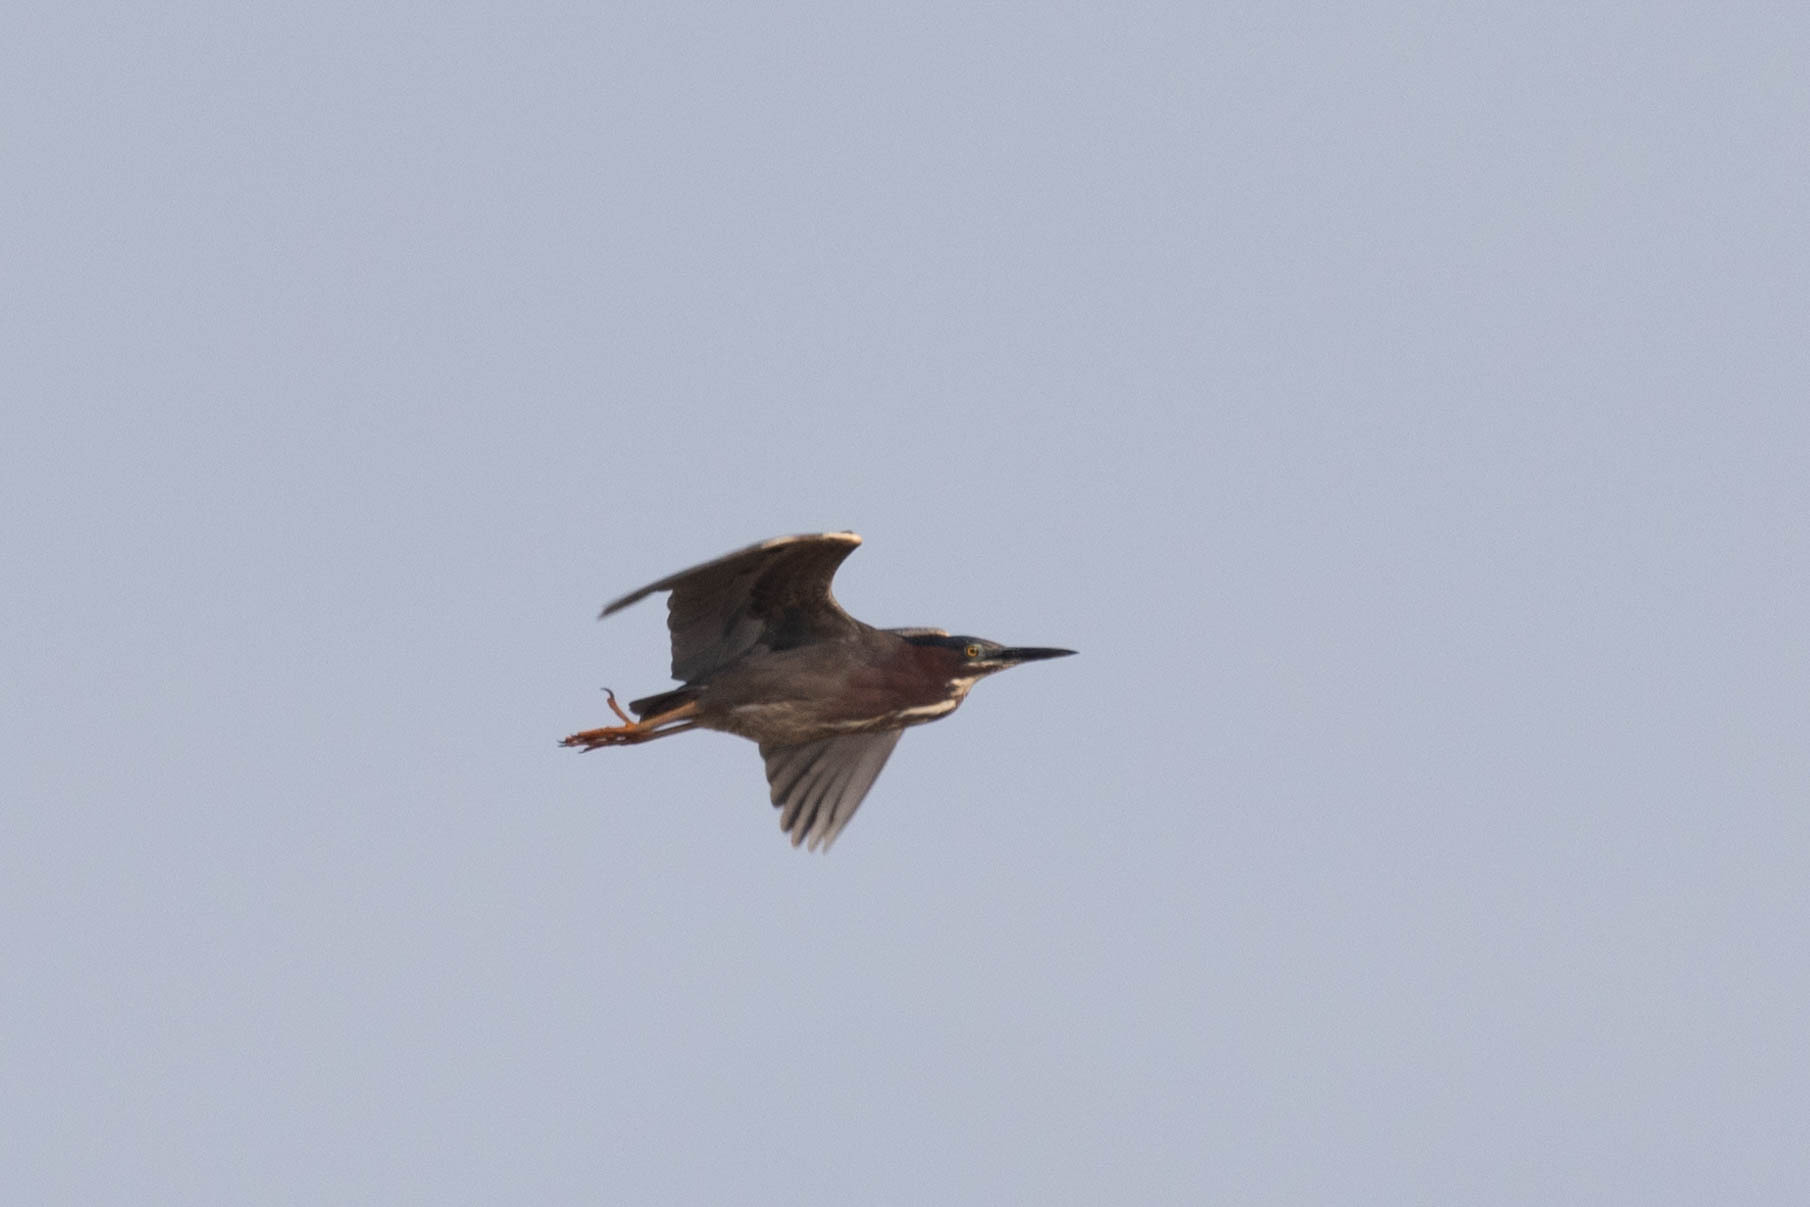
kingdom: Animalia
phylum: Chordata
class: Aves
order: Pelecaniformes
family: Ardeidae
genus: Butorides
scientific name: Butorides virescens
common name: Green heron
